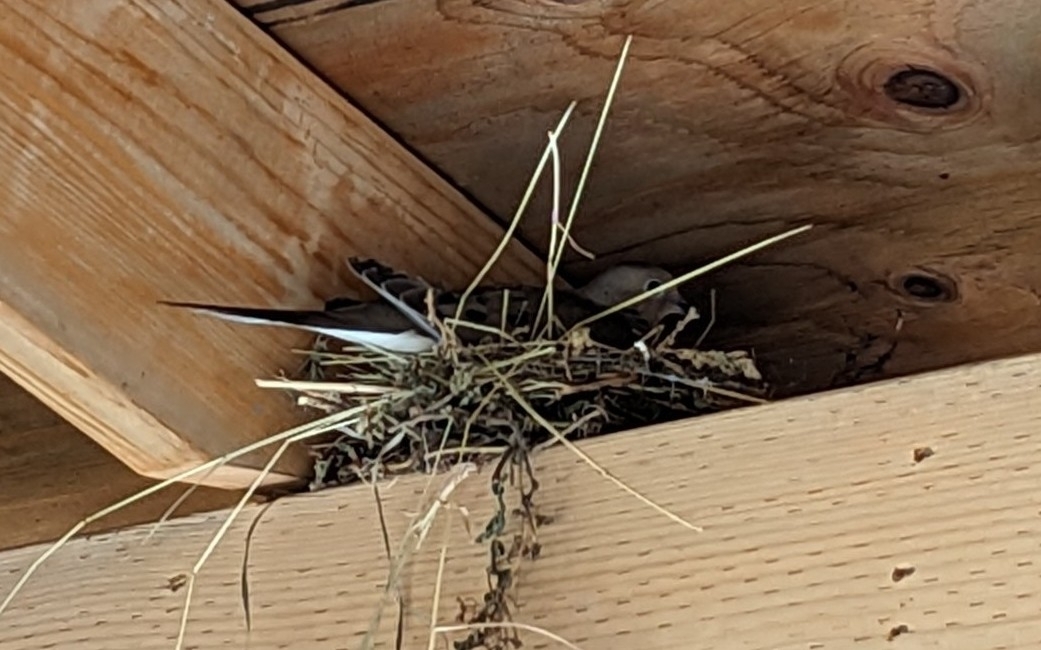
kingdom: Animalia
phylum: Chordata
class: Aves
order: Columbiformes
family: Columbidae
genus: Zenaida
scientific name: Zenaida macroura
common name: Mourning dove
